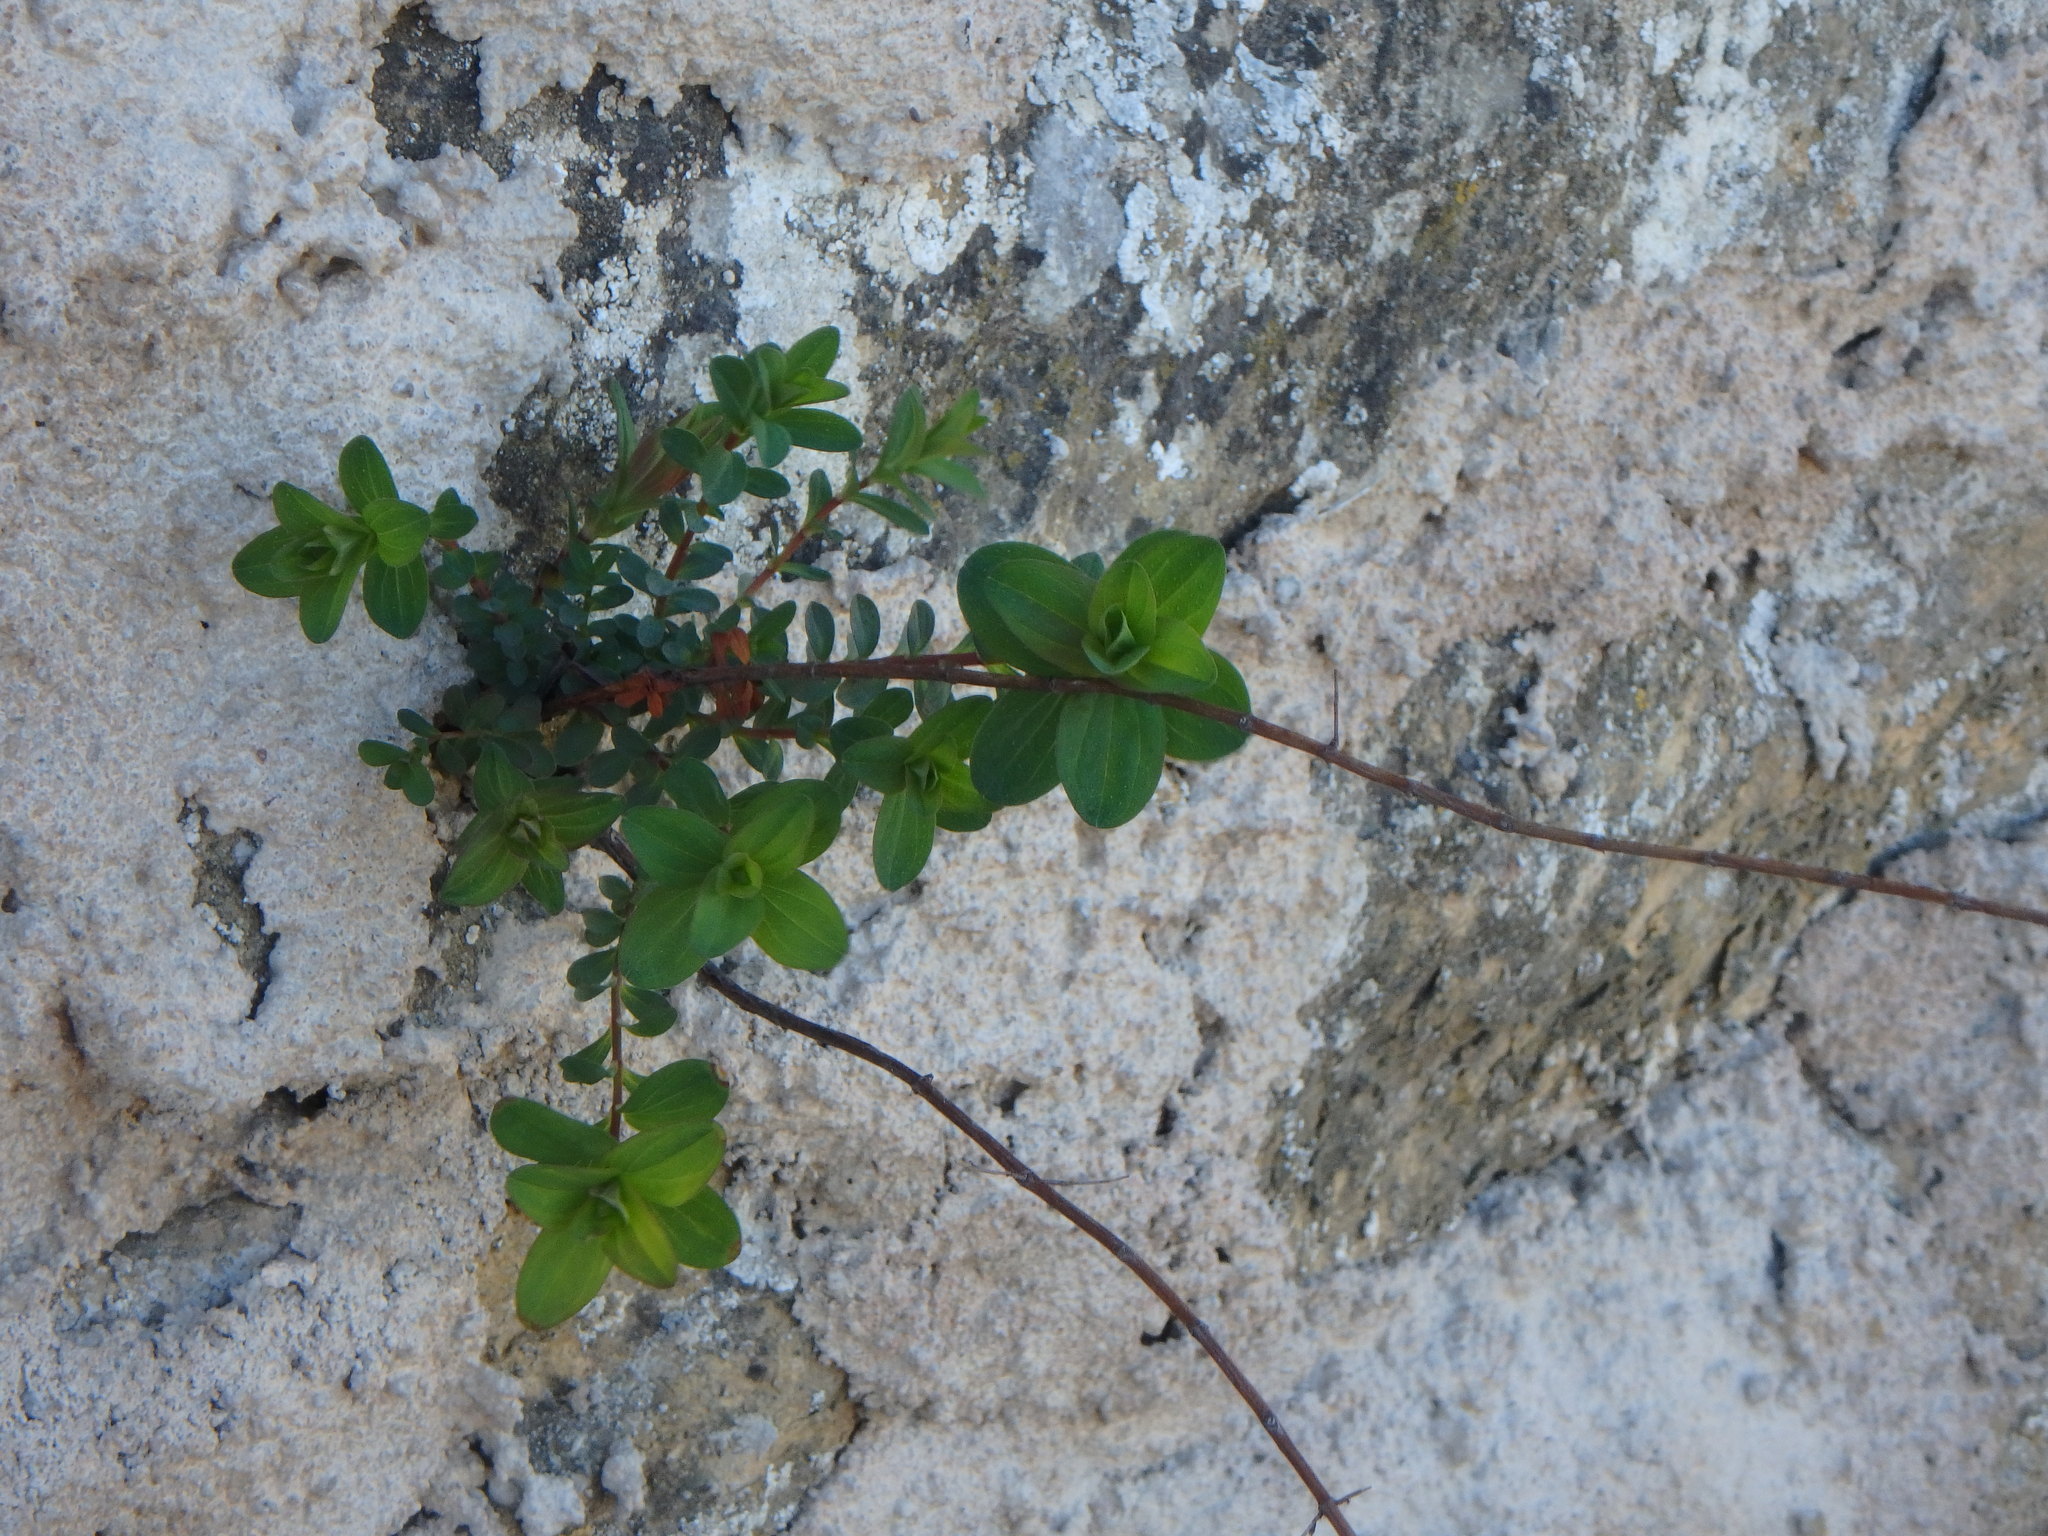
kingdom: Plantae
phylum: Tracheophyta
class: Magnoliopsida
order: Malpighiales
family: Hypericaceae
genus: Hypericum
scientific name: Hypericum perforatum
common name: Common st. johnswort
